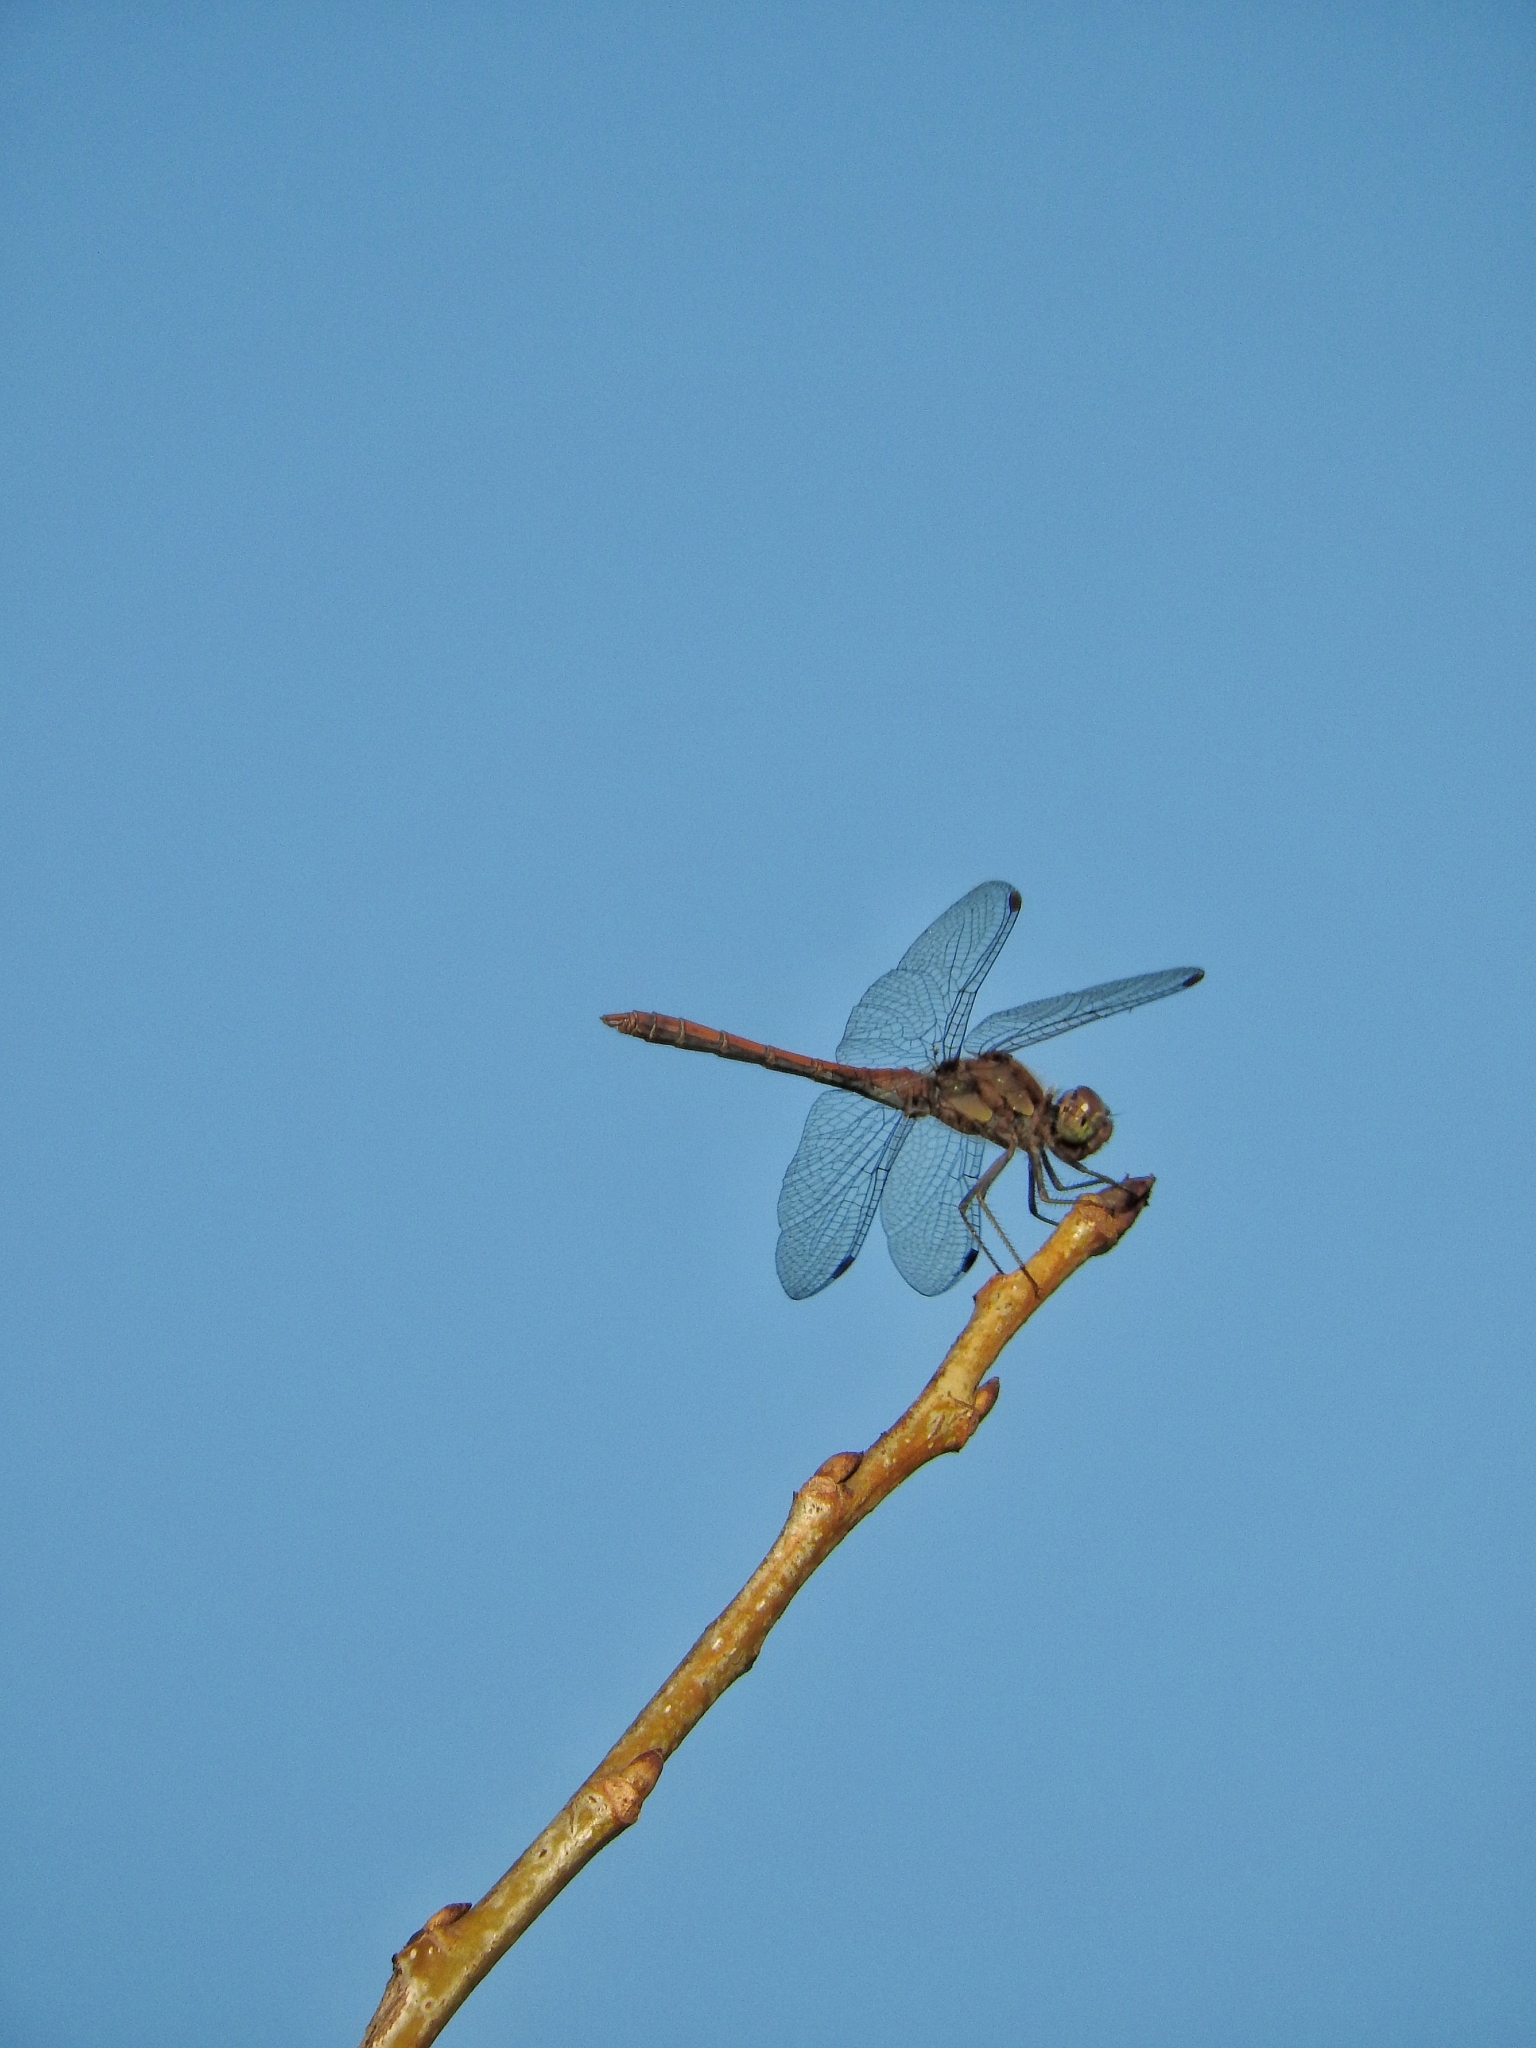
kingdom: Animalia
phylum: Arthropoda
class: Insecta
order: Odonata
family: Libellulidae
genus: Sympetrum
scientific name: Sympetrum striolatum
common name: Common darter
